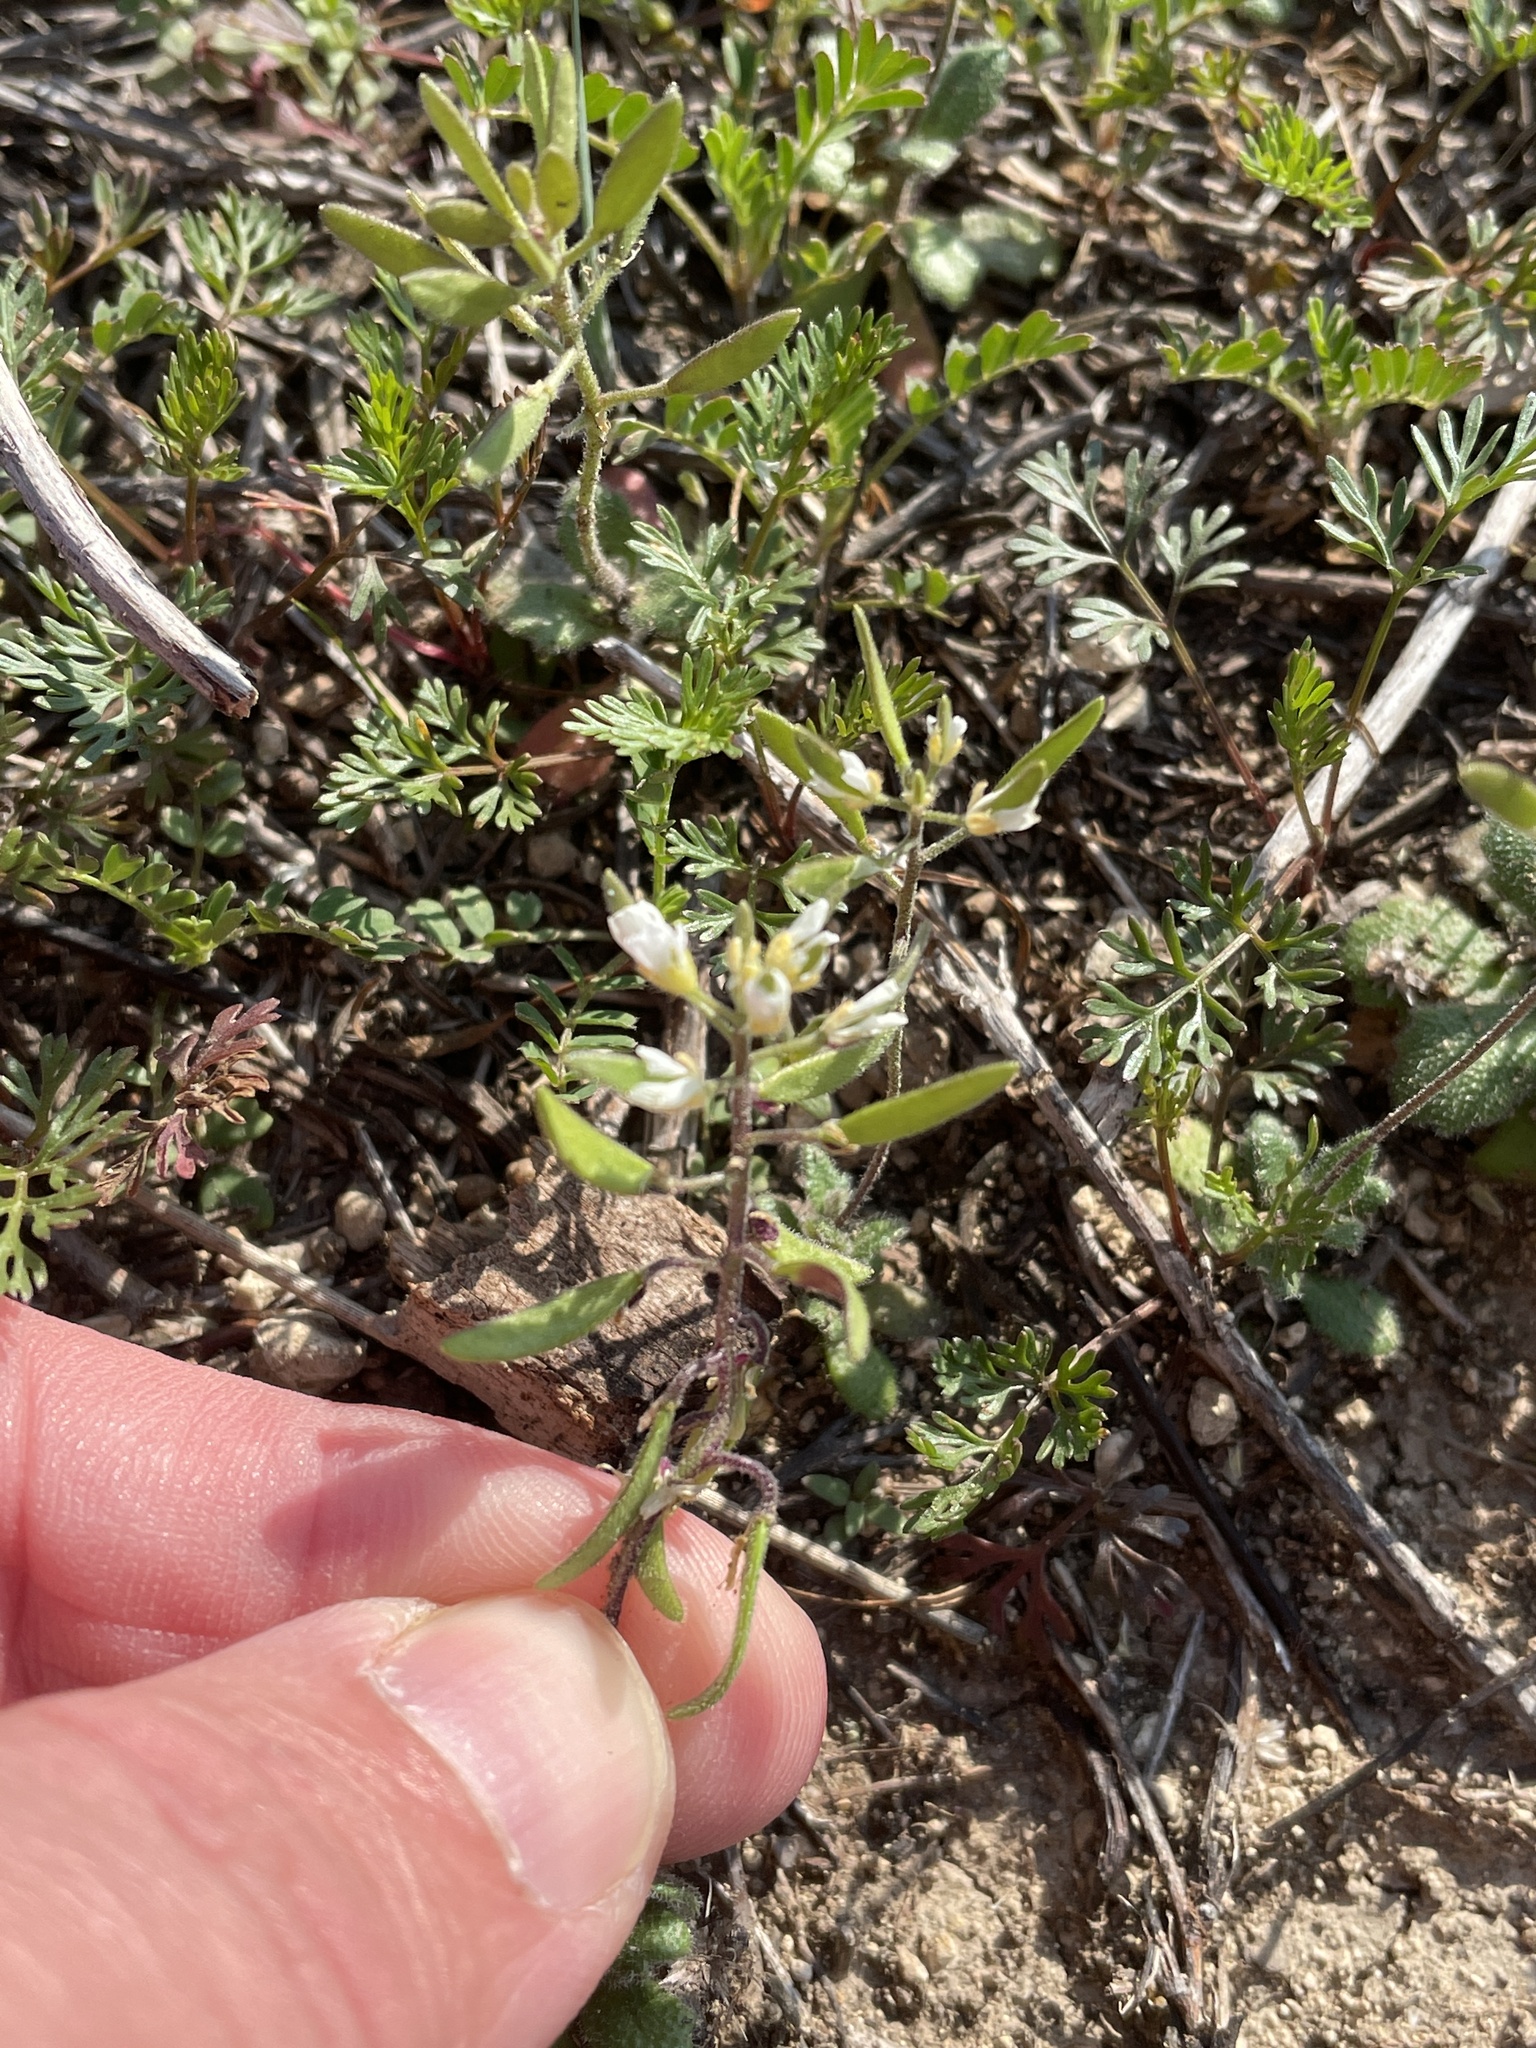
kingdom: Plantae
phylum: Tracheophyta
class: Magnoliopsida
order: Brassicales
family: Brassicaceae
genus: Tomostima
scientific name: Tomostima cuneifolia
